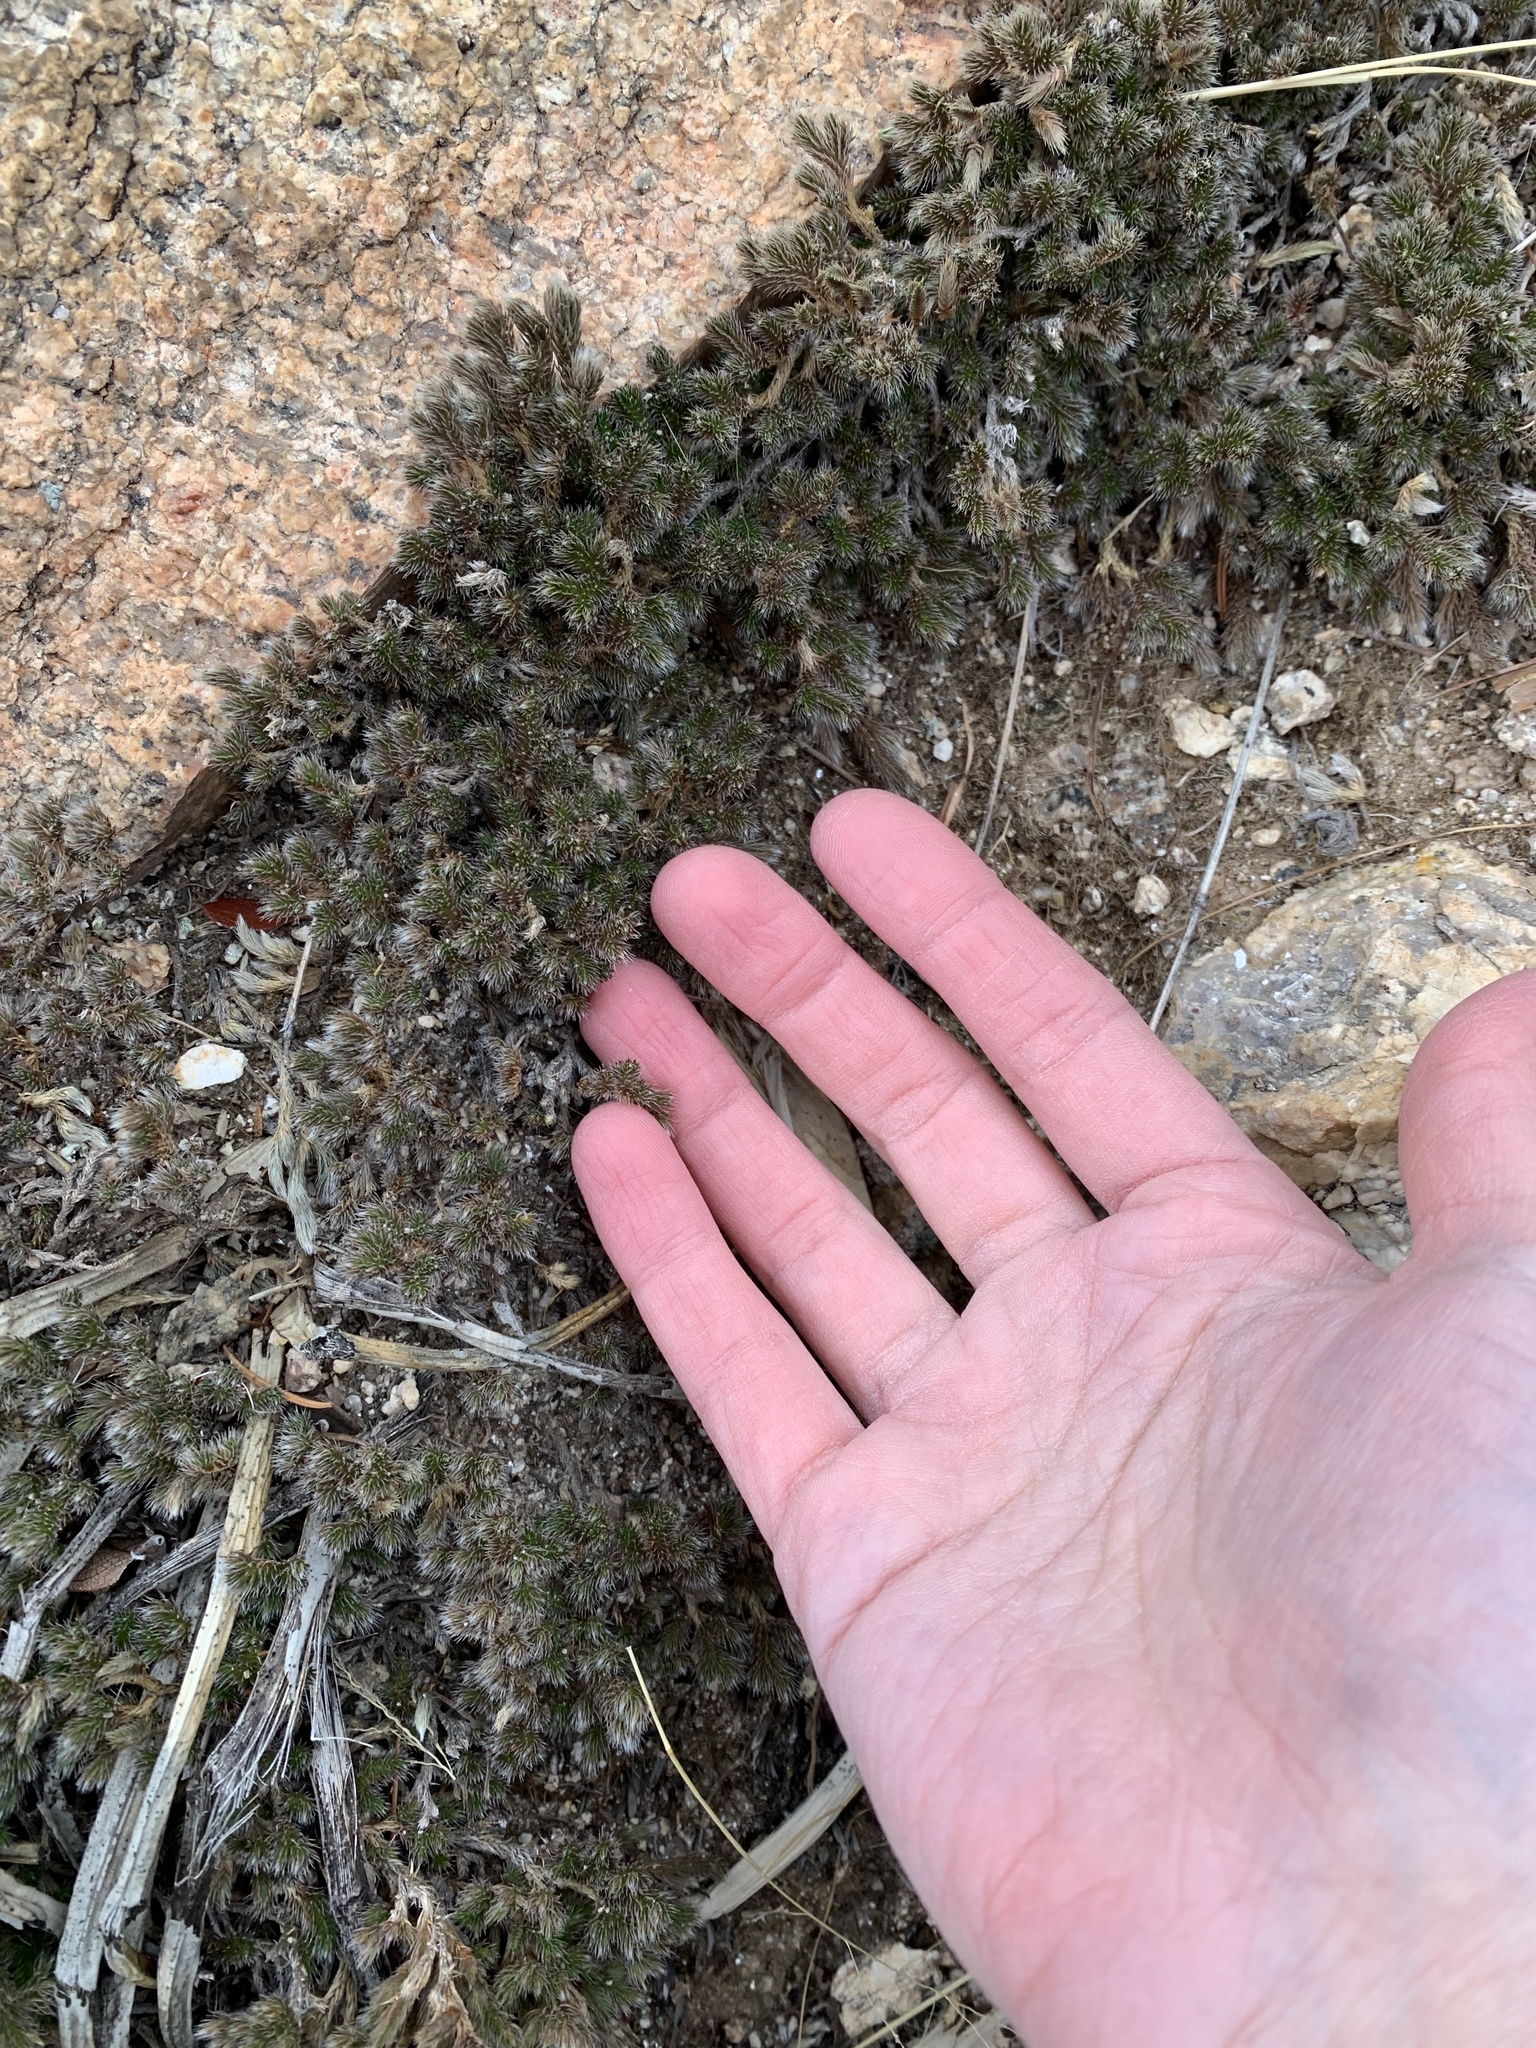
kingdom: Plantae
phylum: Tracheophyta
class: Lycopodiopsida
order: Selaginellales
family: Selaginellaceae
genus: Selaginella
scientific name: Selaginella rupincola
